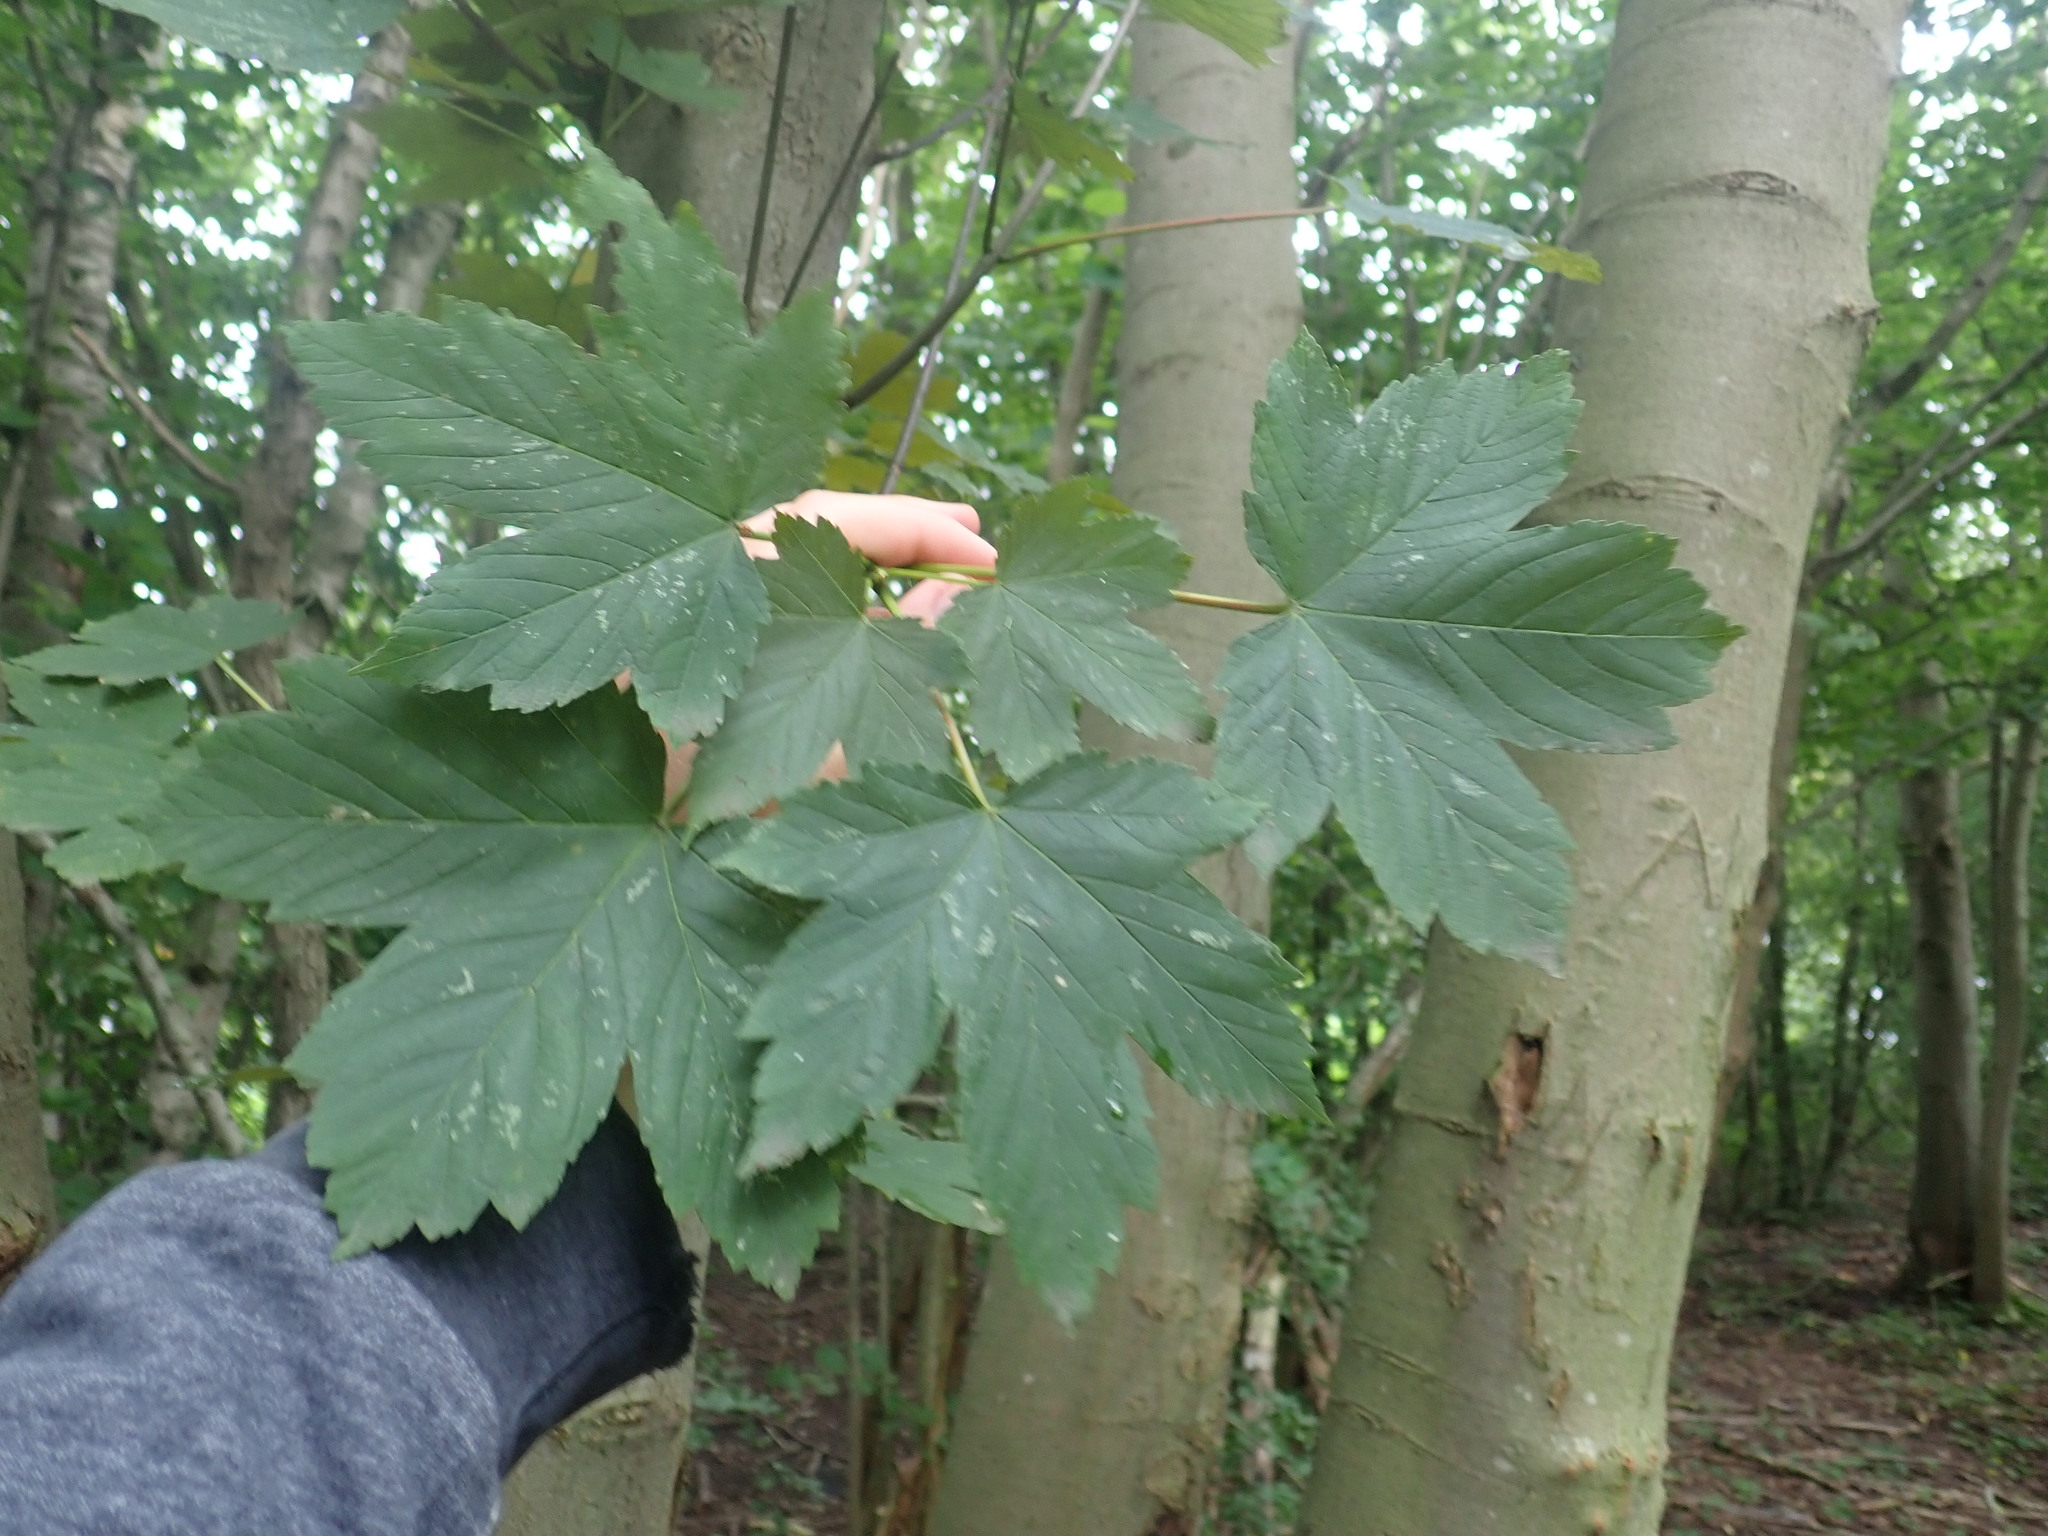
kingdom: Plantae
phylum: Tracheophyta
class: Magnoliopsida
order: Sapindales
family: Sapindaceae
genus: Acer
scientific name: Acer pseudoplatanus
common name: Sycamore
